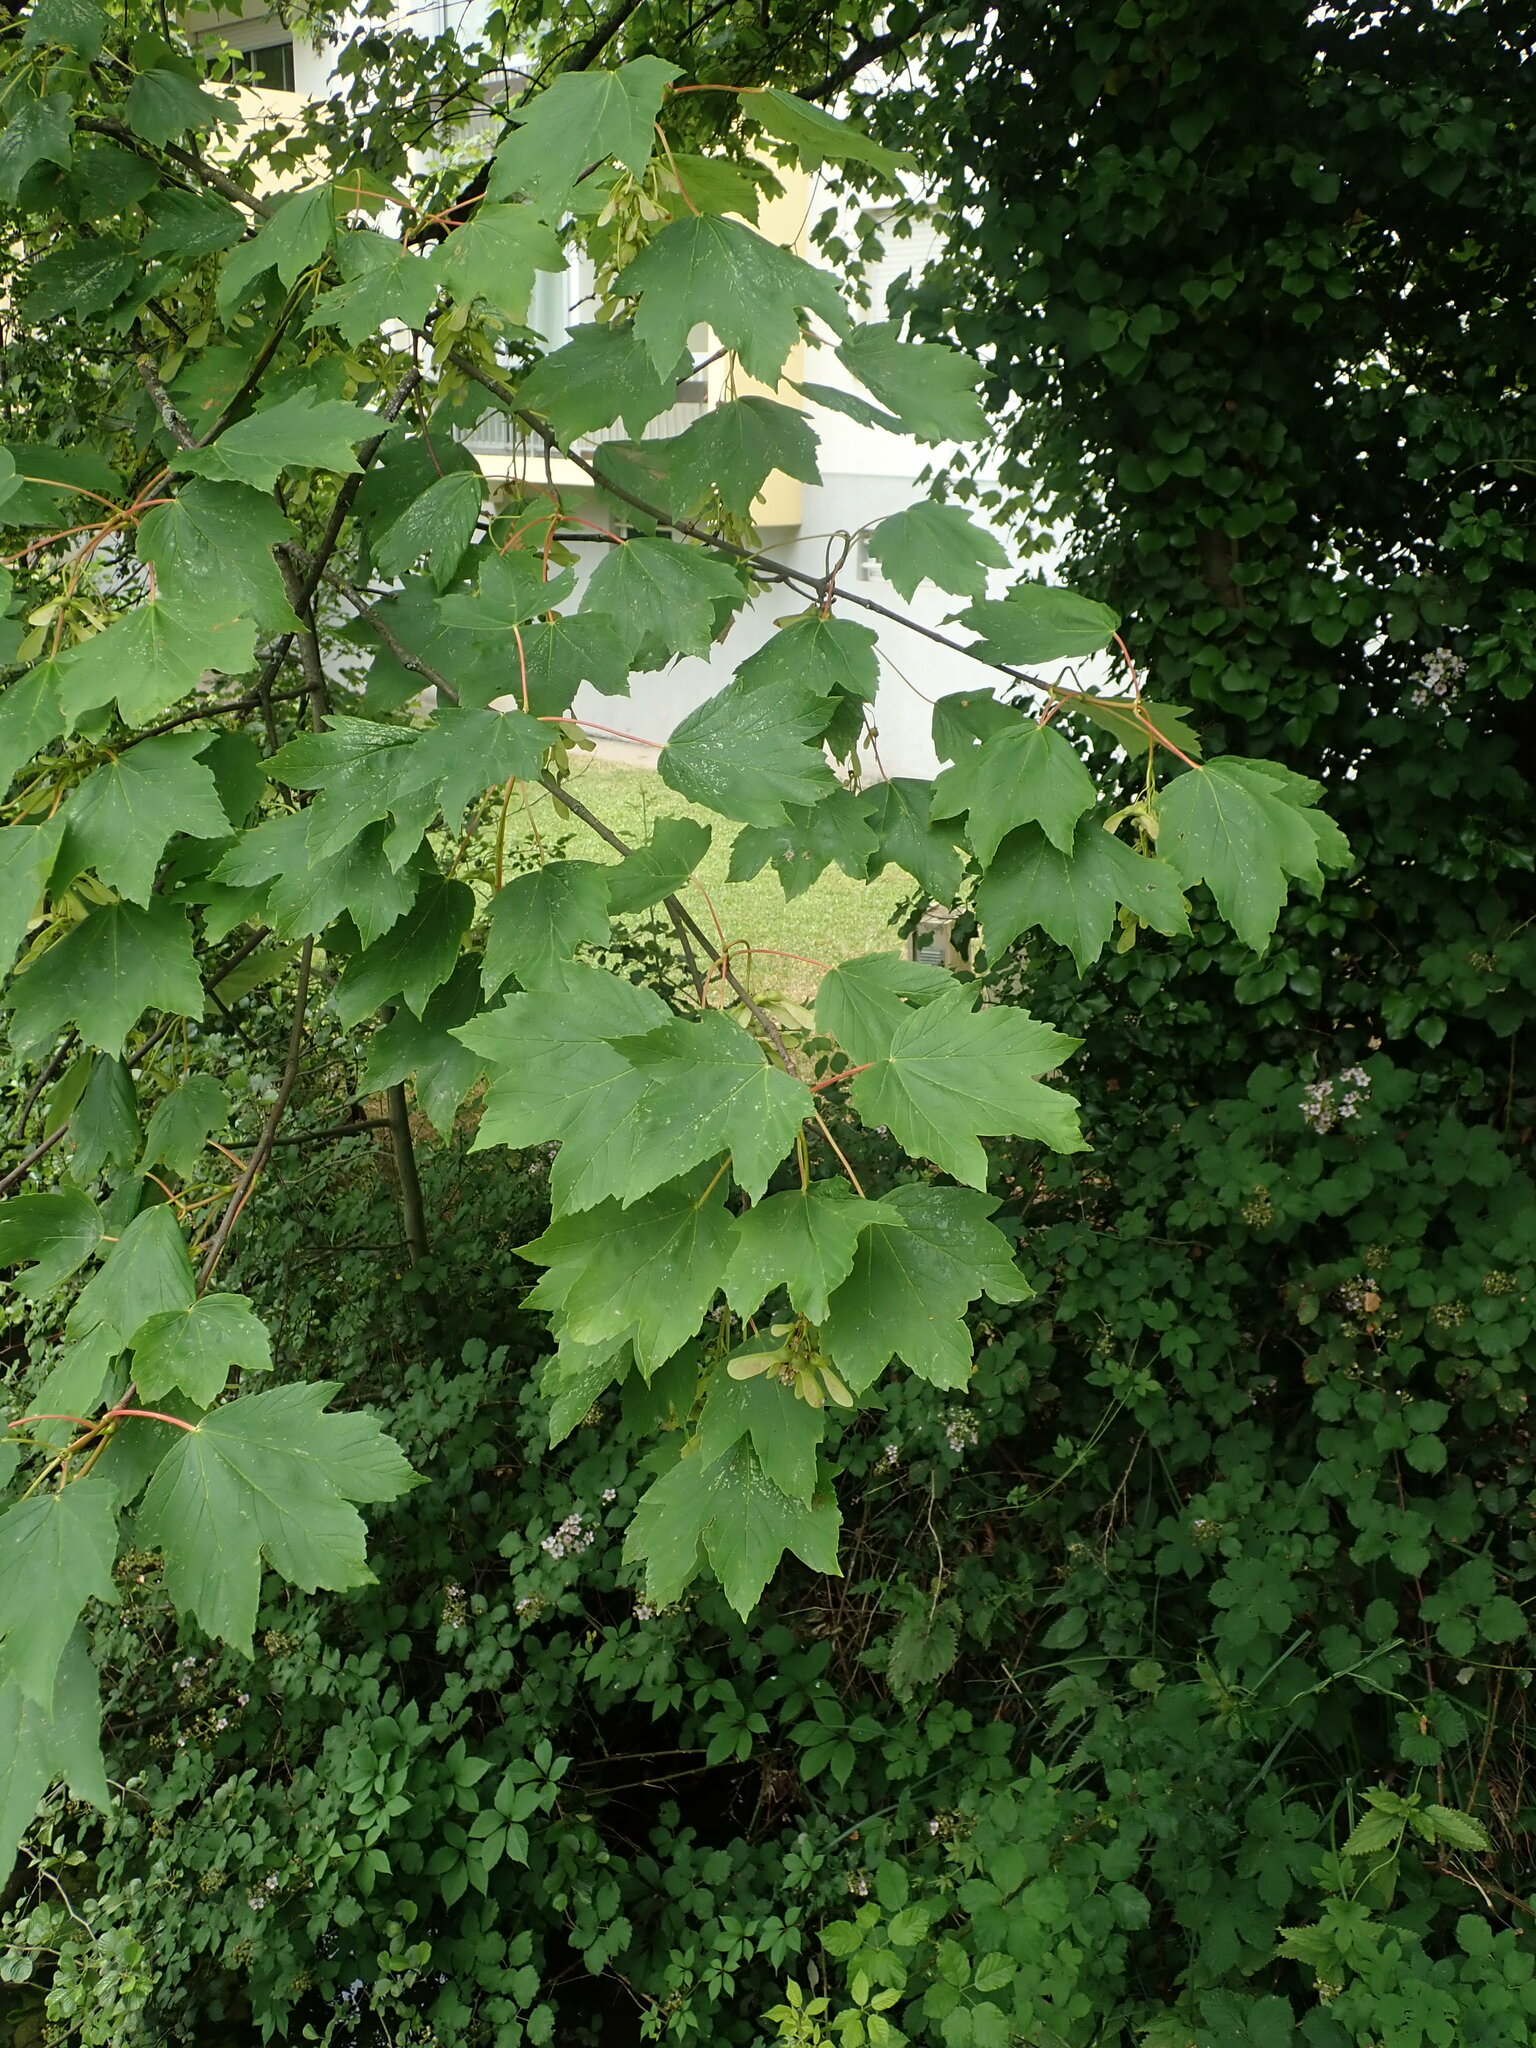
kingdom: Plantae
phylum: Tracheophyta
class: Magnoliopsida
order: Sapindales
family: Sapindaceae
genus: Acer
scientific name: Acer pseudoplatanus
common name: Sycamore
